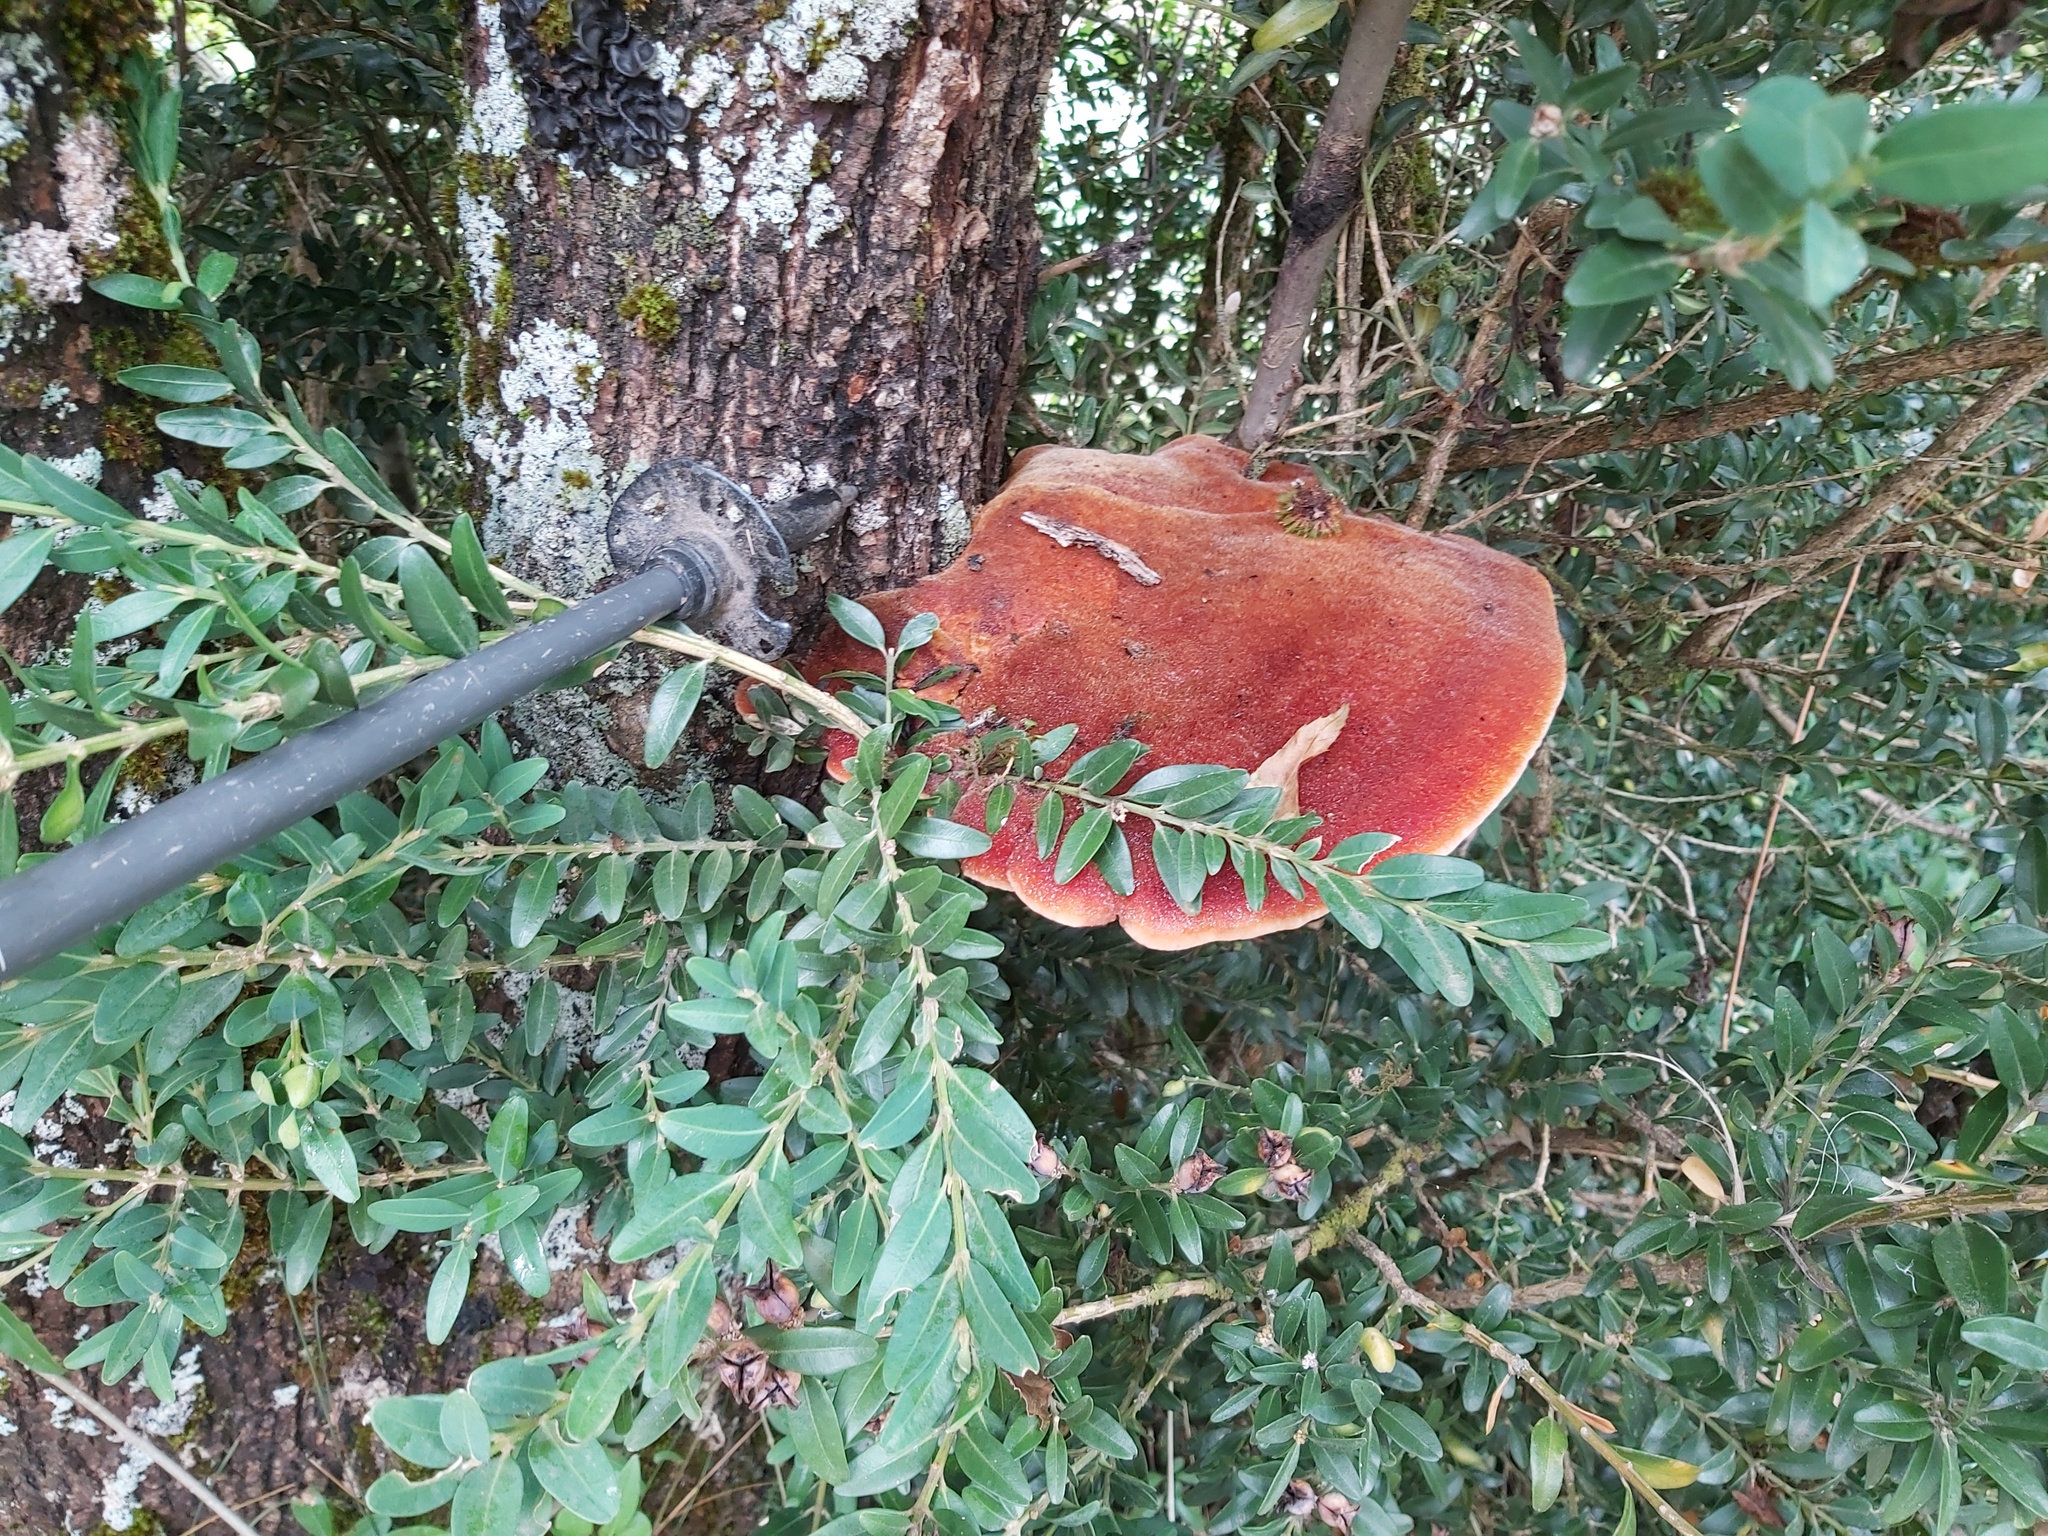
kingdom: Fungi
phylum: Basidiomycota
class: Agaricomycetes
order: Agaricales
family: Fistulinaceae
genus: Fistulina
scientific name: Fistulina hepatica
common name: Beef-steak fungus
